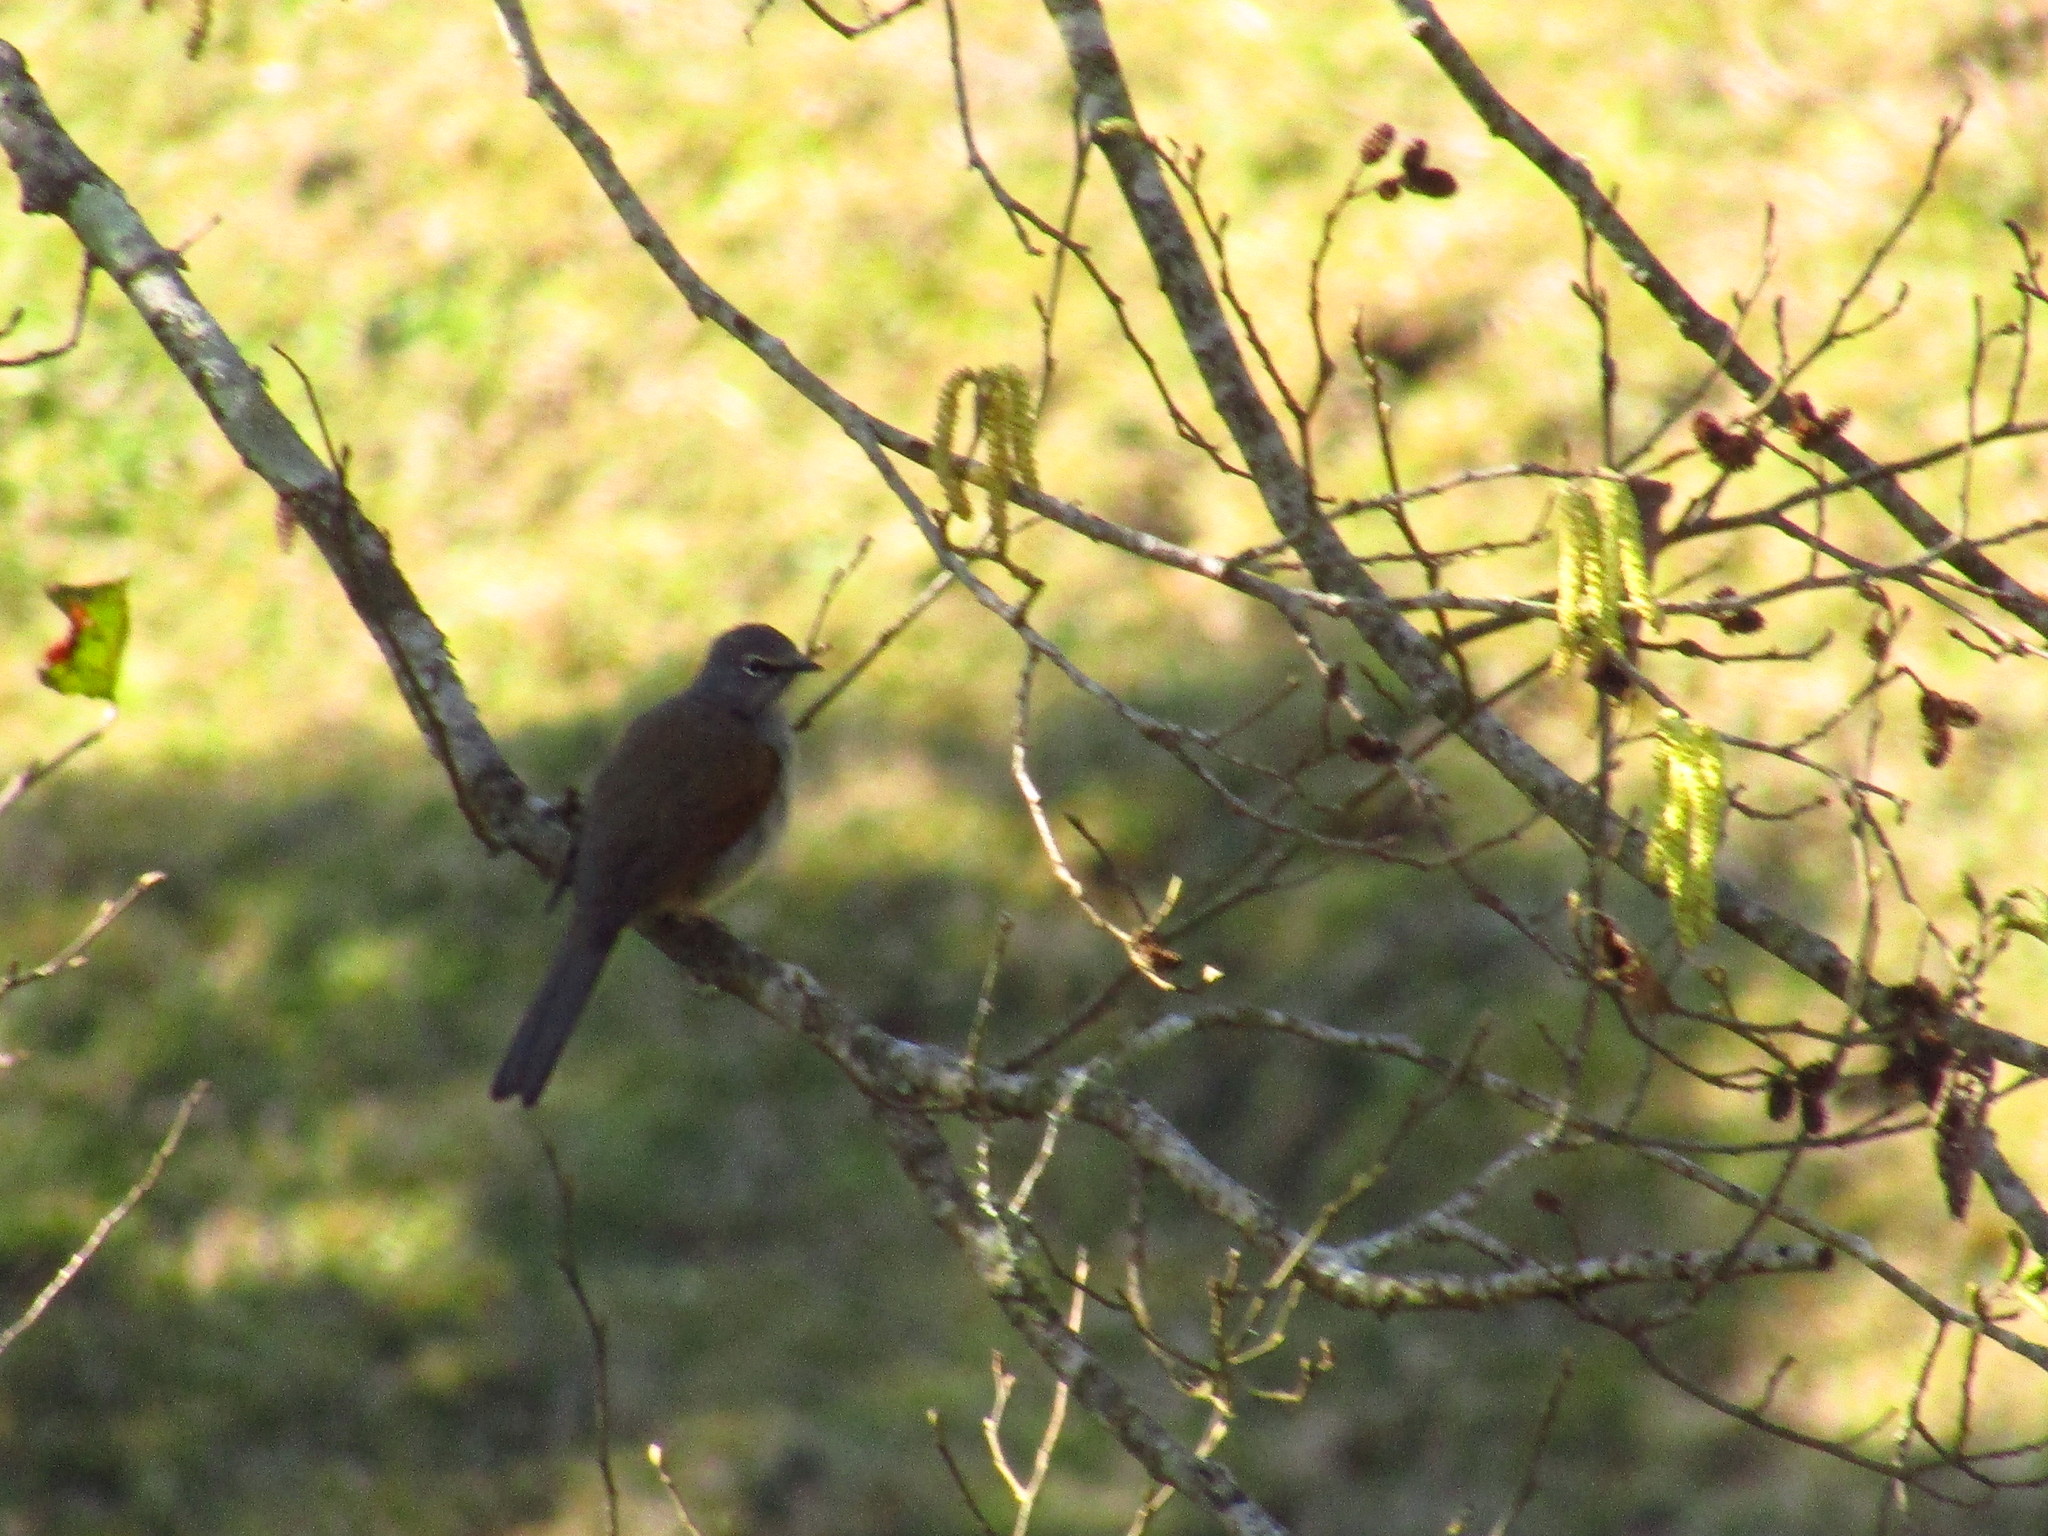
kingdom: Animalia
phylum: Chordata
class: Aves
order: Passeriformes
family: Turdidae
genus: Myadestes
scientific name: Myadestes occidentalis
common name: Brown-backed solitaire
